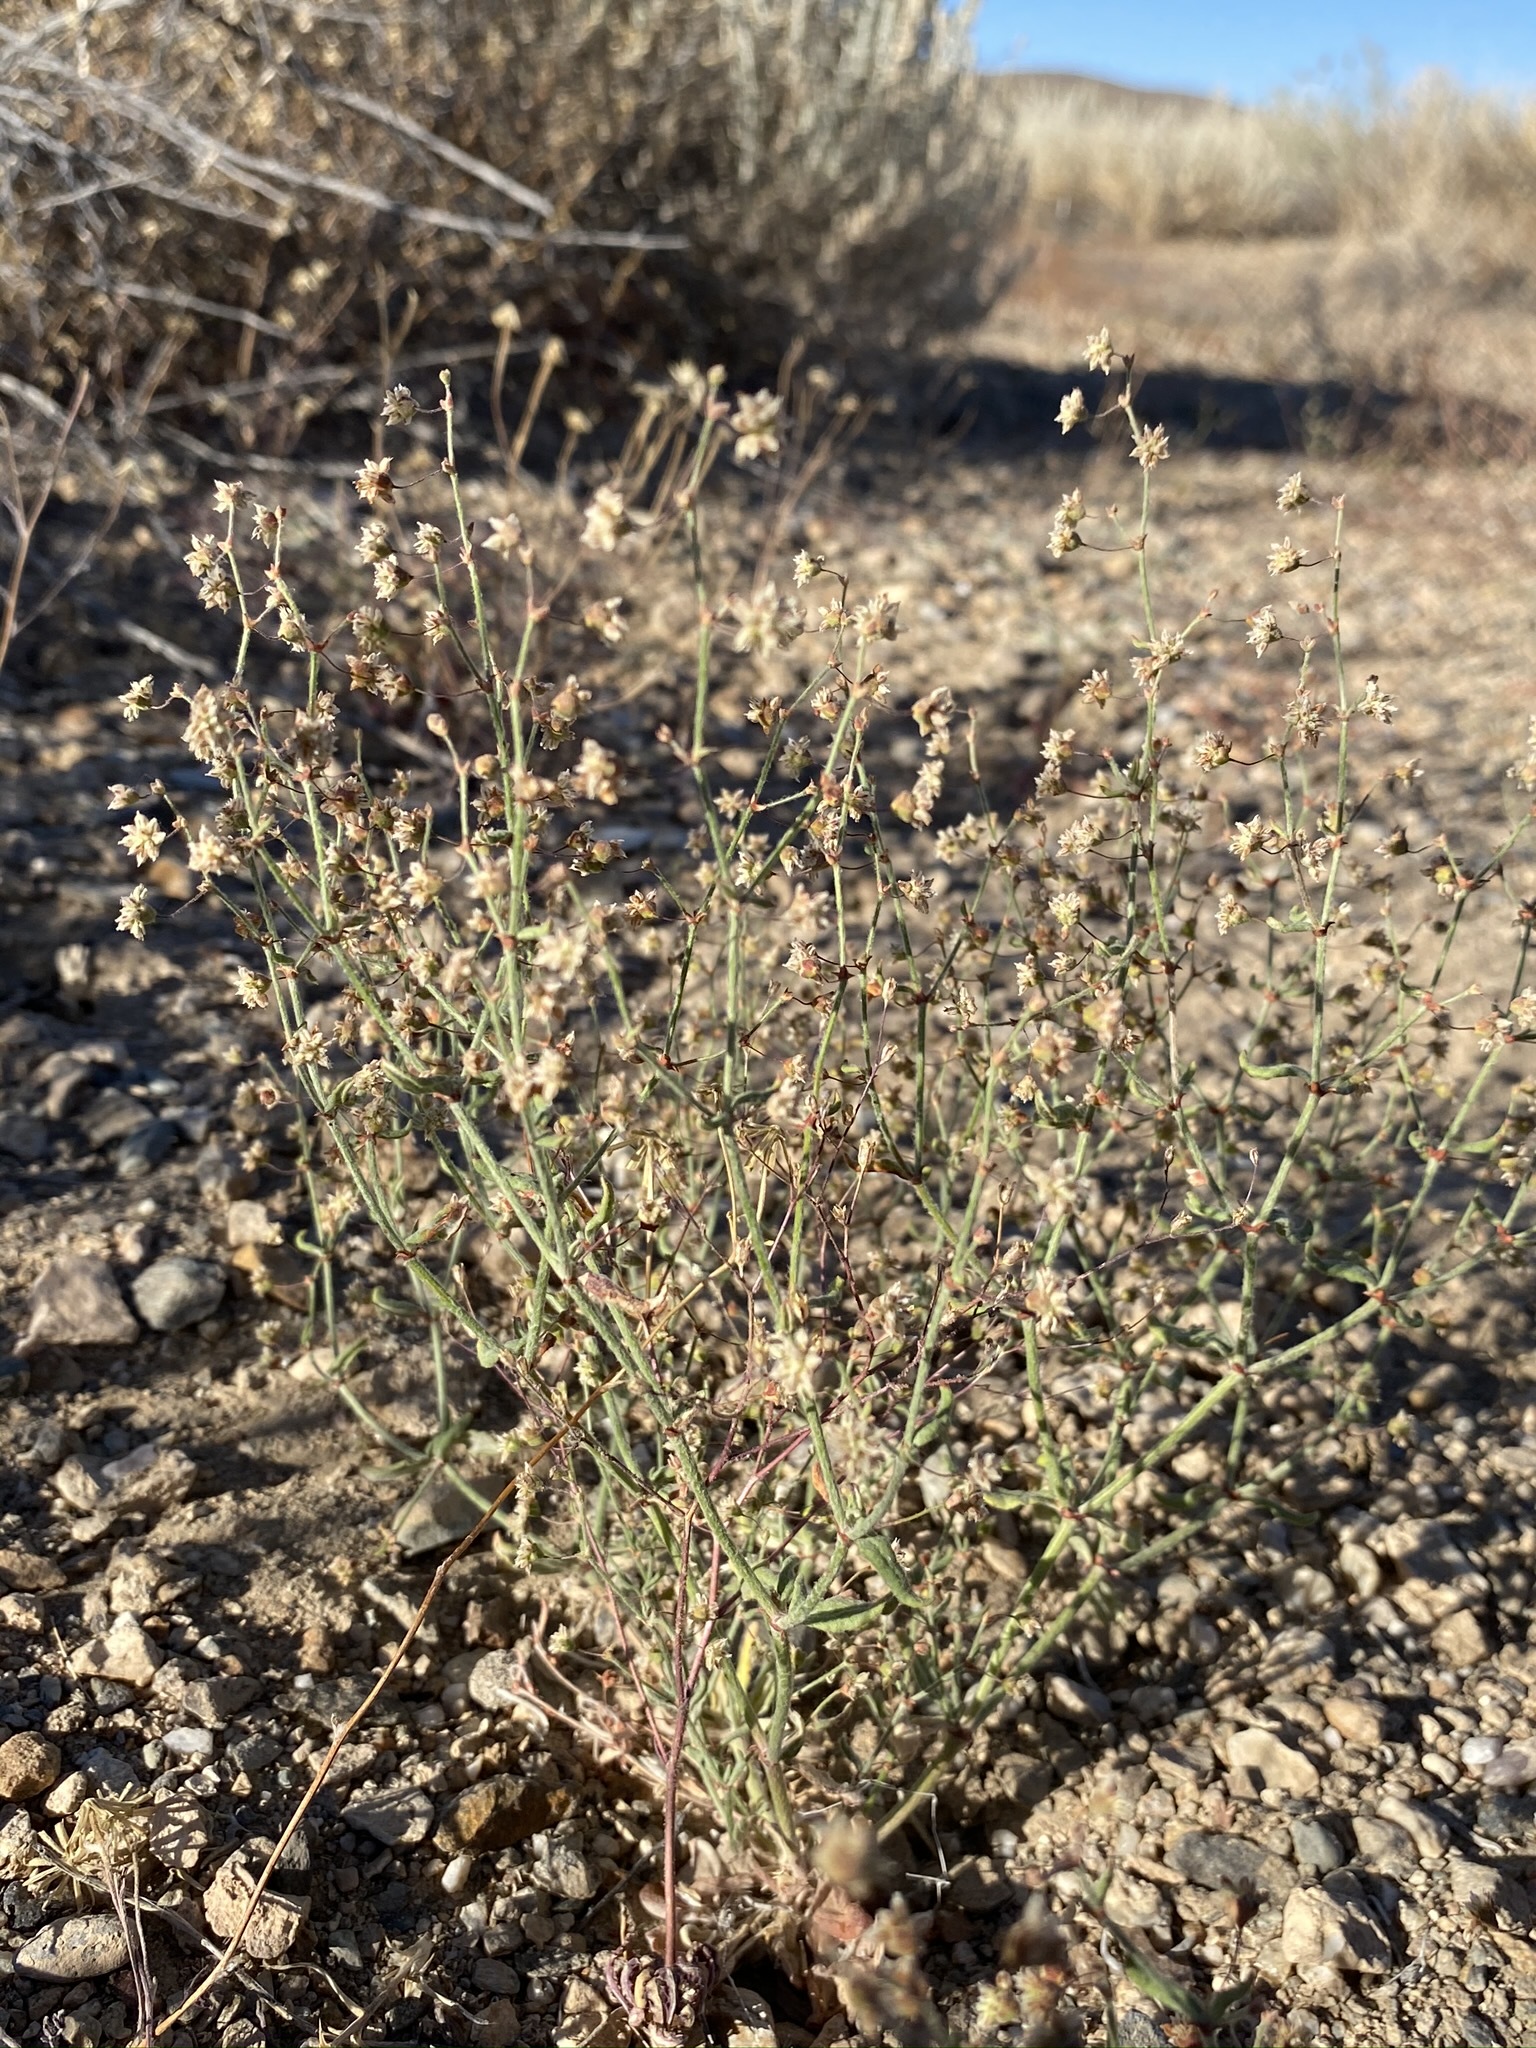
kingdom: Plantae
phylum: Tracheophyta
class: Magnoliopsida
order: Caryophyllales
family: Polygonaceae
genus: Eriogonum
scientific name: Eriogonum maculatum
